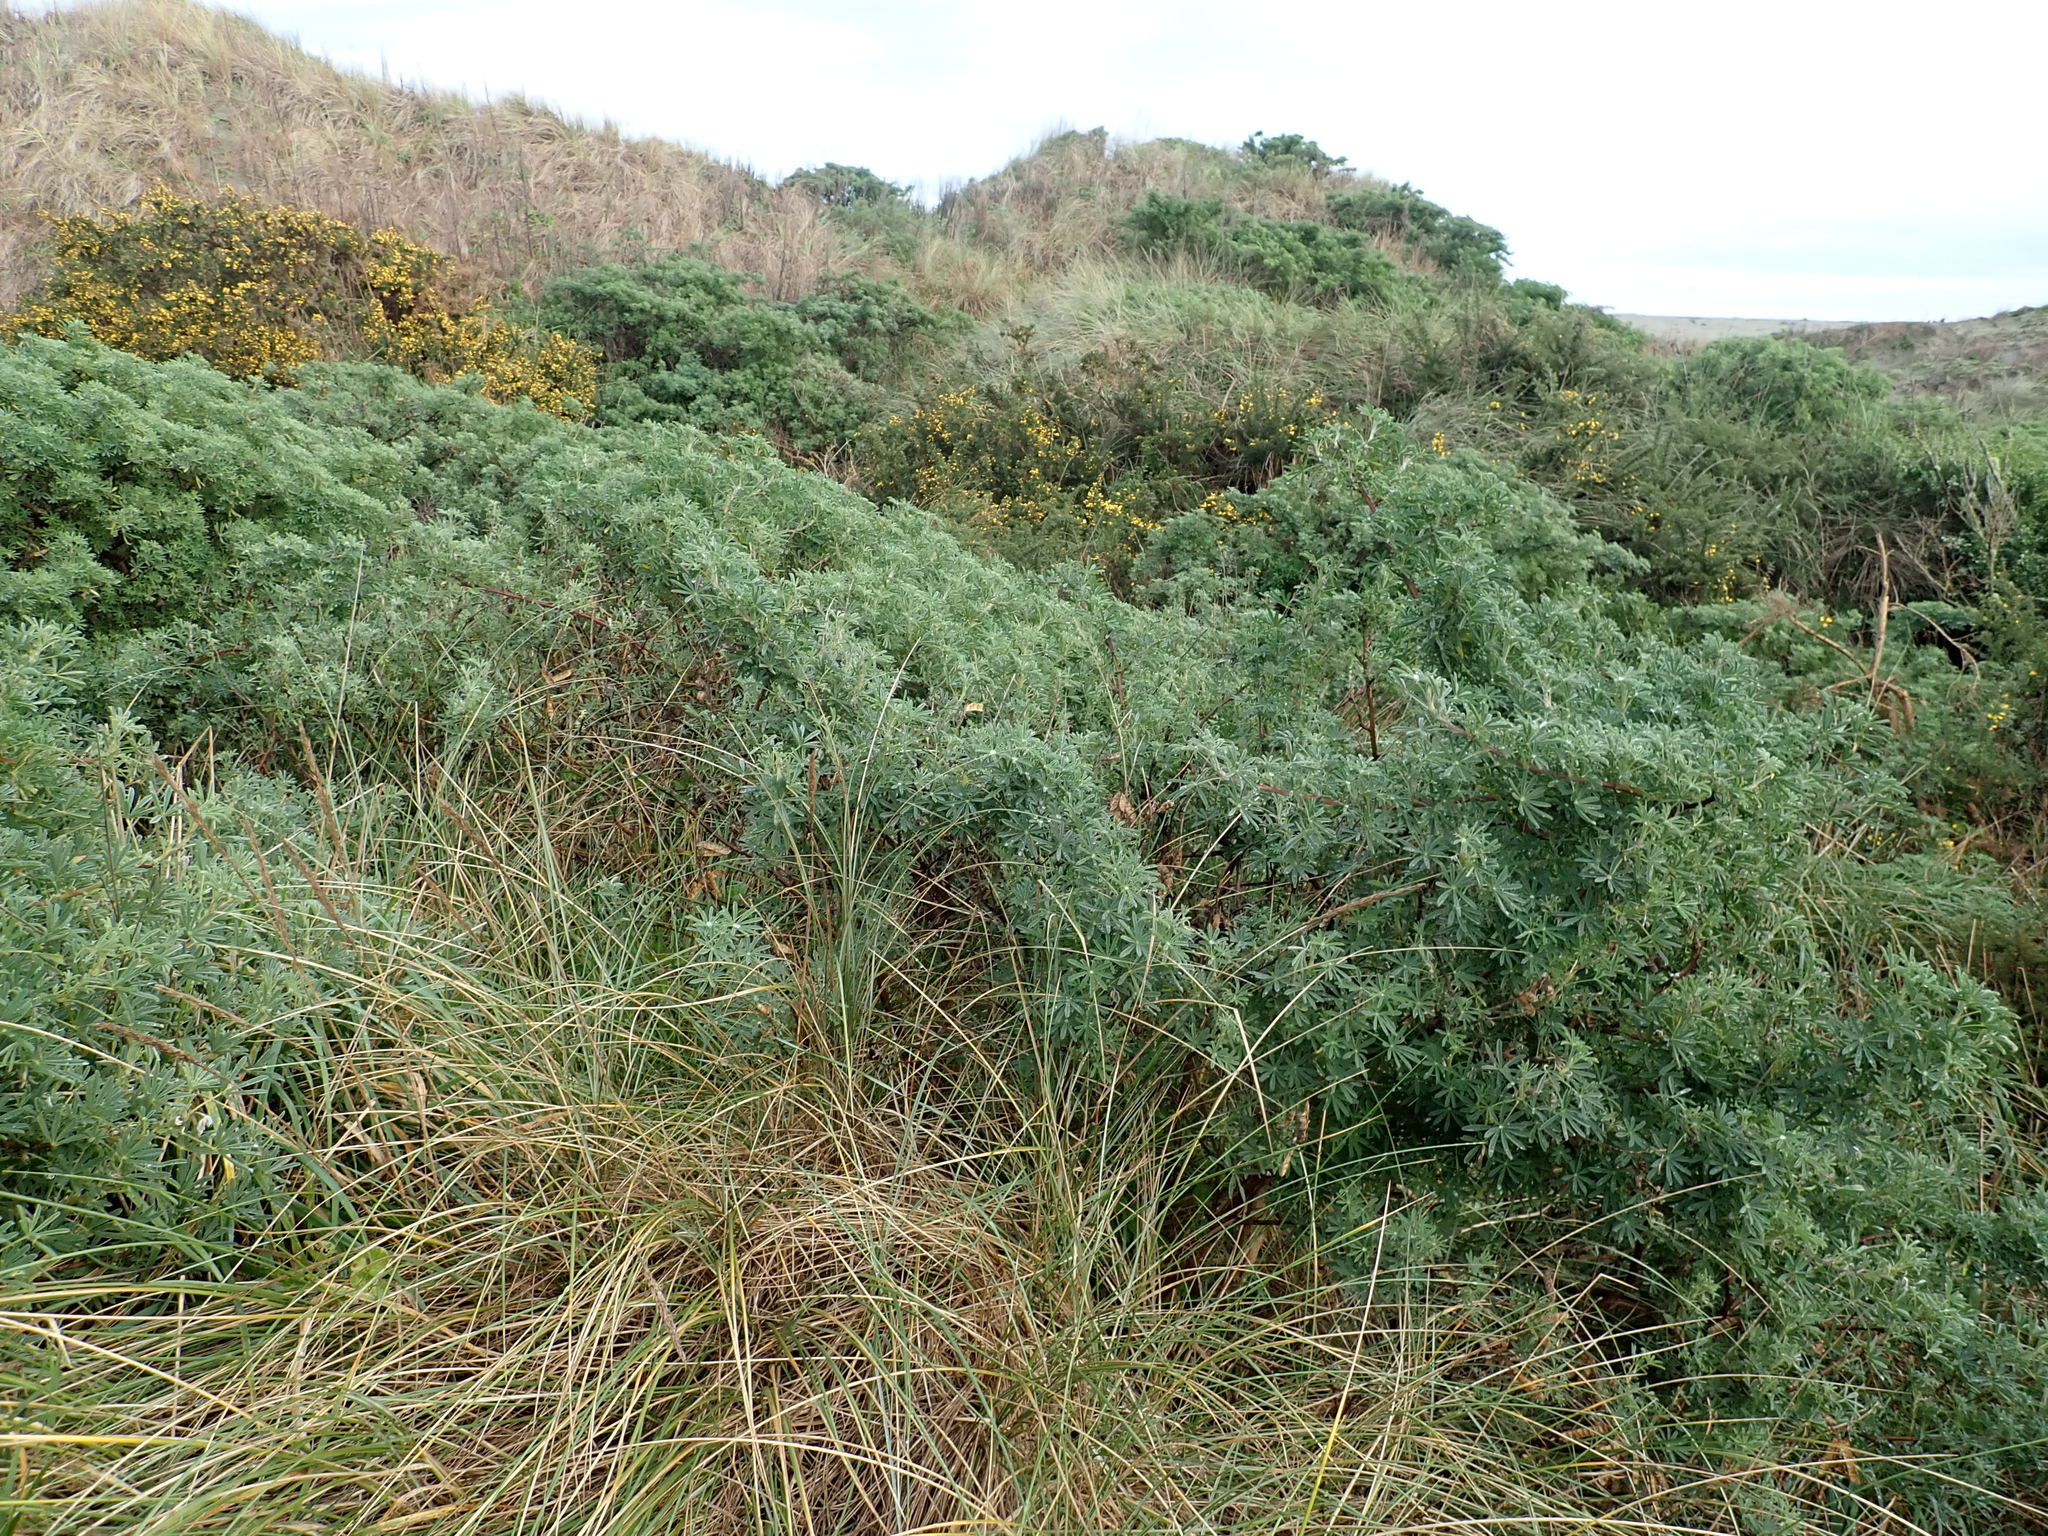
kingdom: Plantae
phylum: Tracheophyta
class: Magnoliopsida
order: Fabales
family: Fabaceae
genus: Lupinus
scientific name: Lupinus arboreus
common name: Yellow bush lupine
